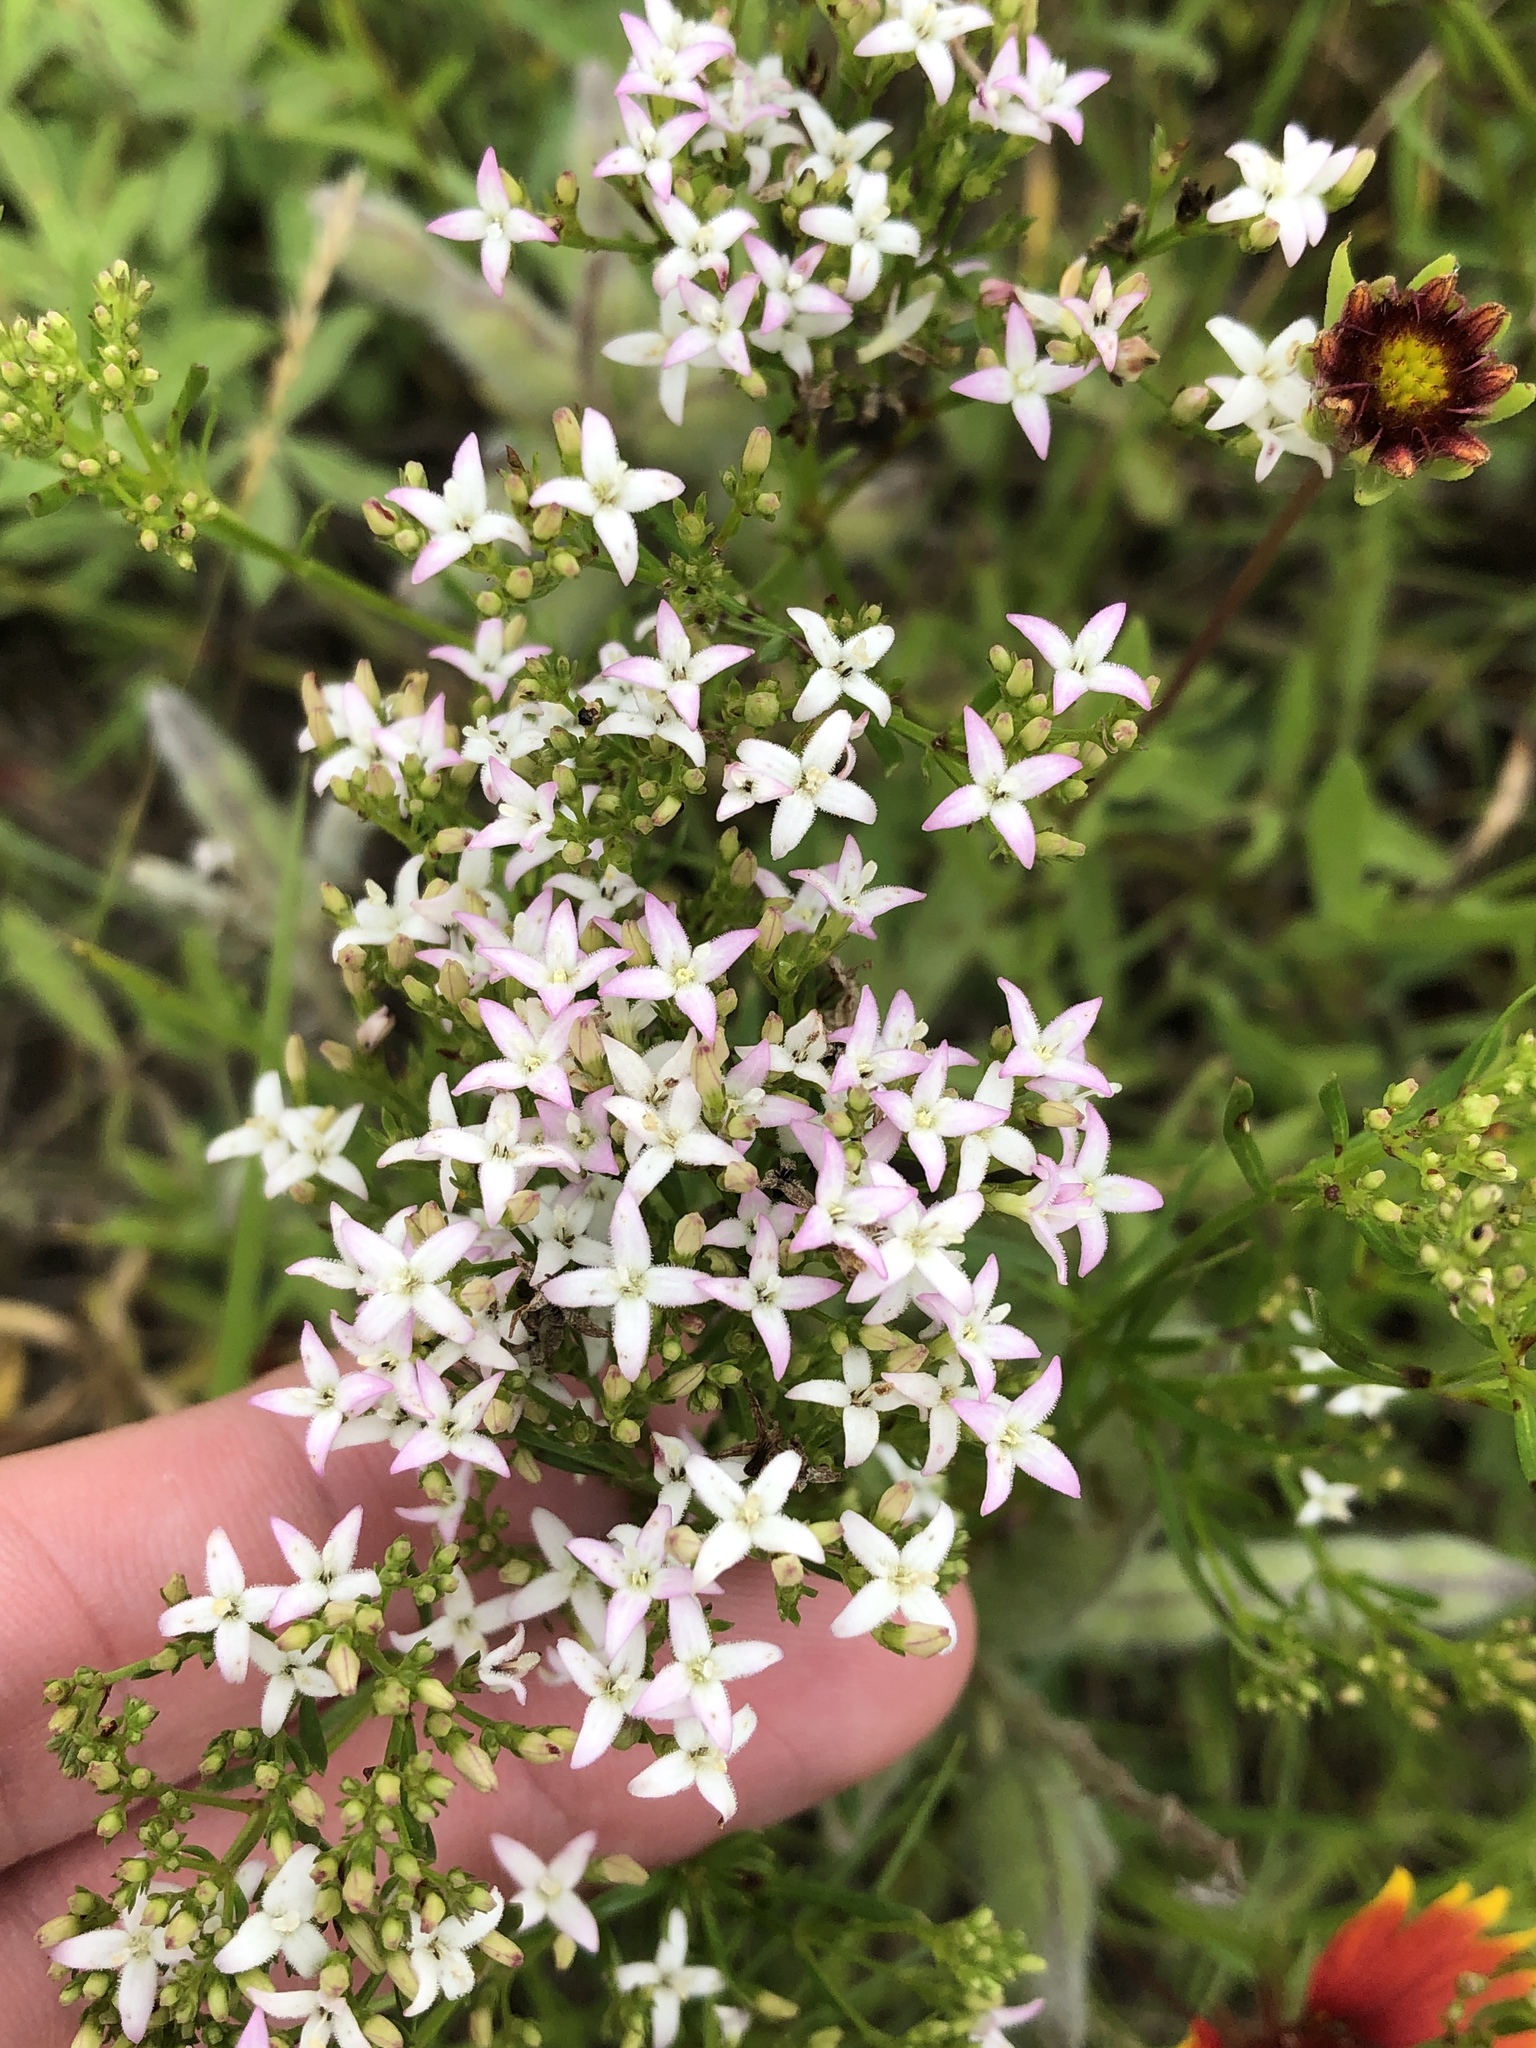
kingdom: Plantae
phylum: Tracheophyta
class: Magnoliopsida
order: Gentianales
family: Rubiaceae
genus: Stenaria
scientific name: Stenaria nigricans
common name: Diamondflowers
